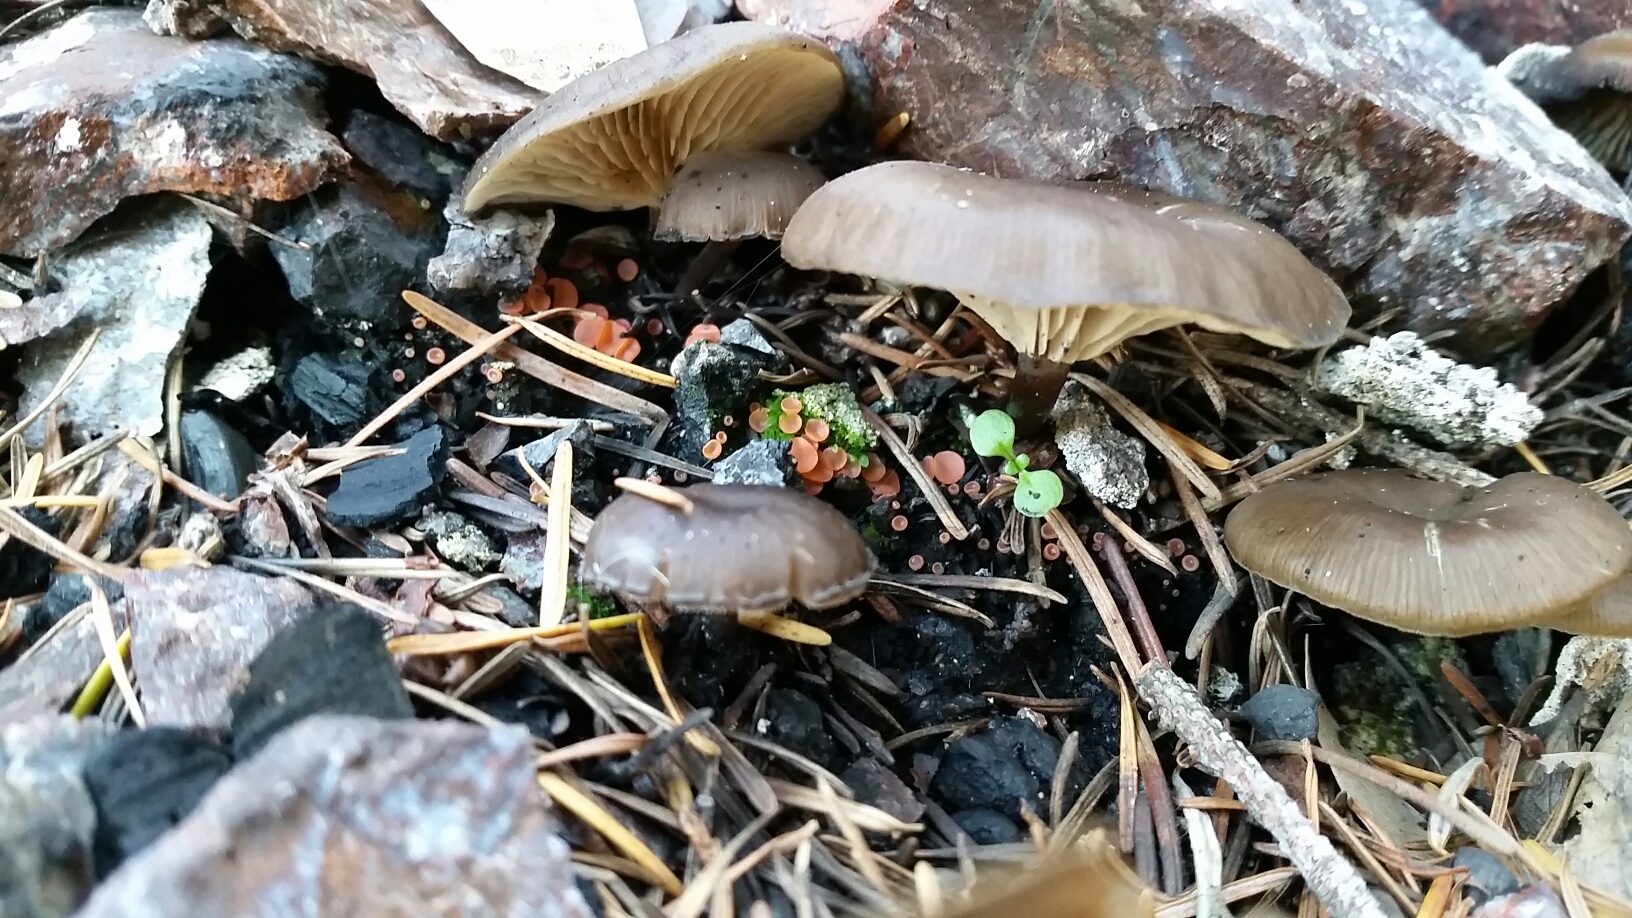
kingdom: Fungi
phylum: Basidiomycota
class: Agaricomycetes
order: Agaricales
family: Tricholomataceae
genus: Myxomphalia
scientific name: Myxomphalia maura
